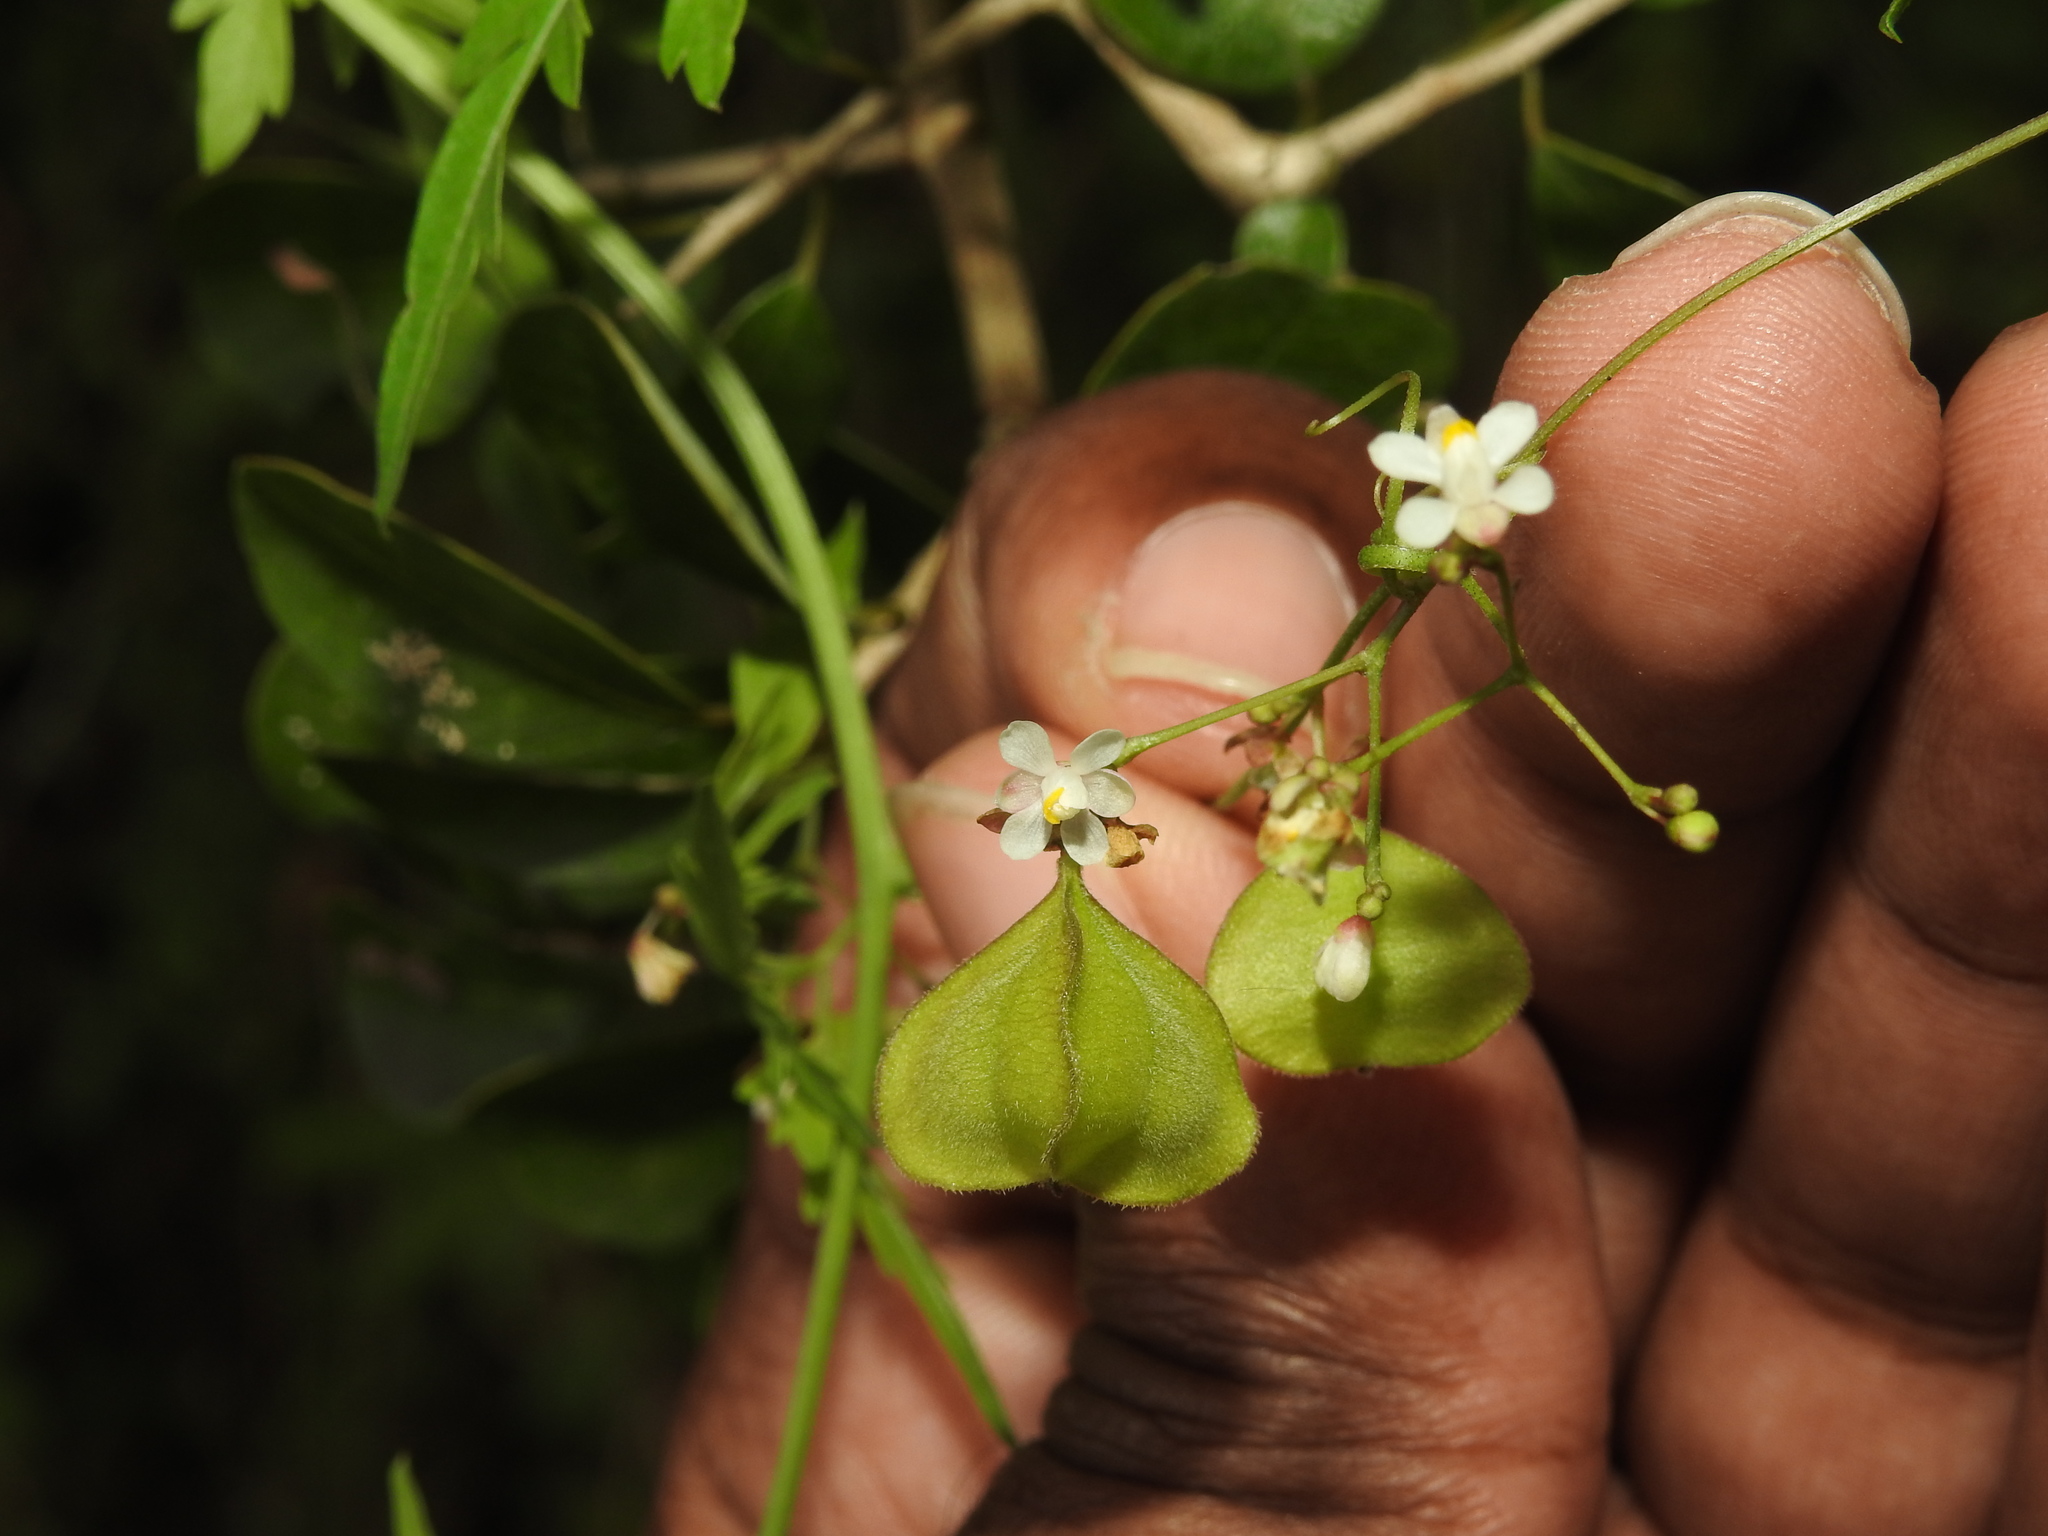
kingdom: Plantae
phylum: Tracheophyta
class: Magnoliopsida
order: Sapindales
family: Sapindaceae
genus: Cardiospermum
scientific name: Cardiospermum halicacabum
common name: Balloon vine
